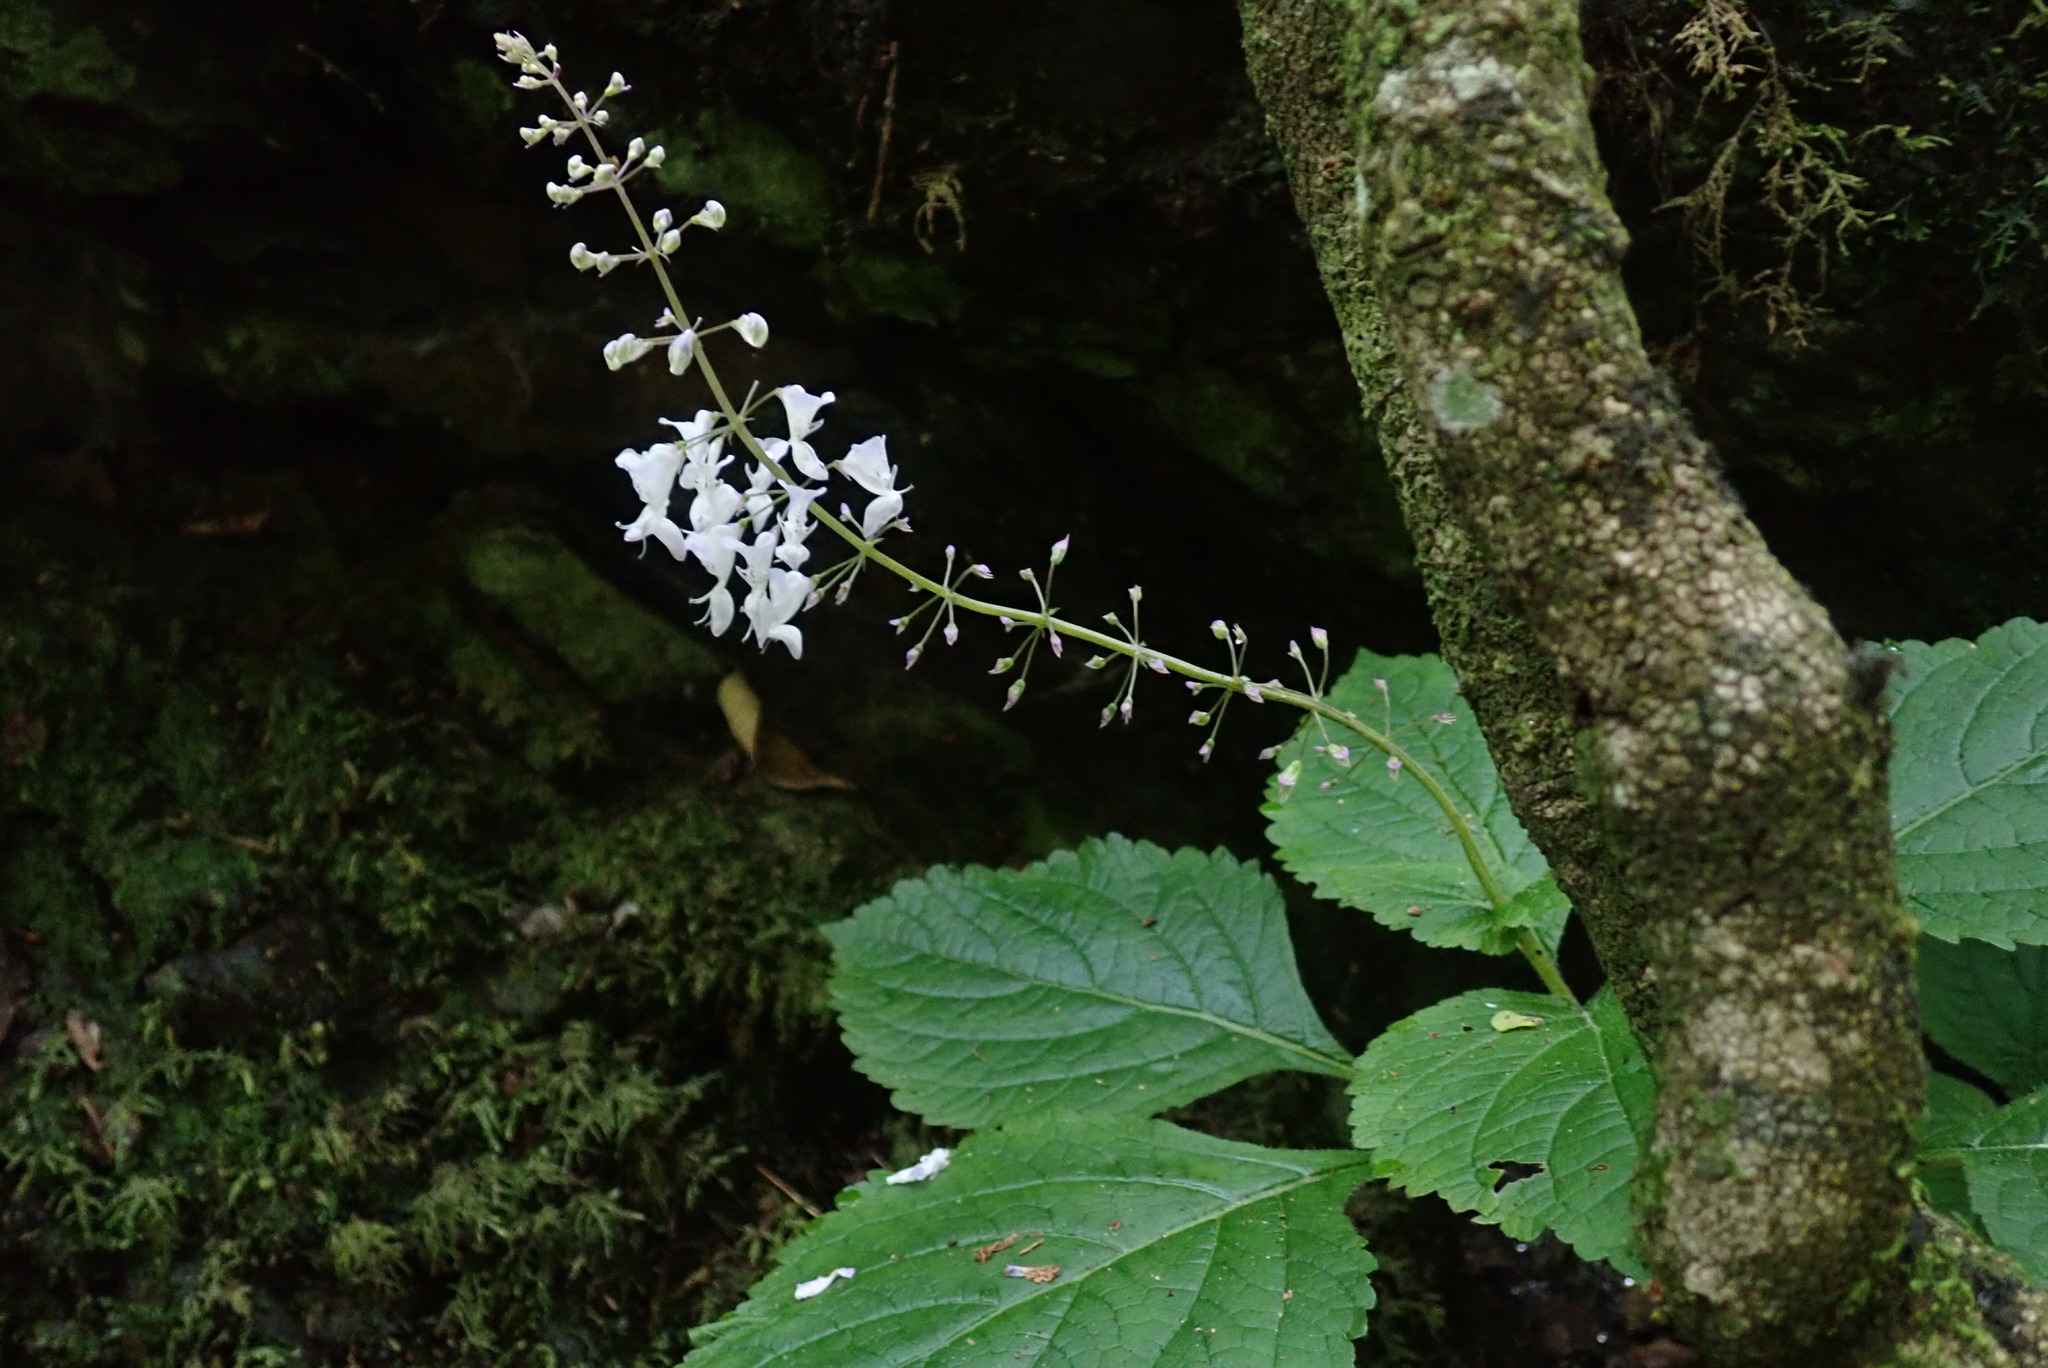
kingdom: Plantae
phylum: Tracheophyta
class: Magnoliopsida
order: Lamiales
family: Lamiaceae
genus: Plectranthus
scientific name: Plectranthus grallatus
